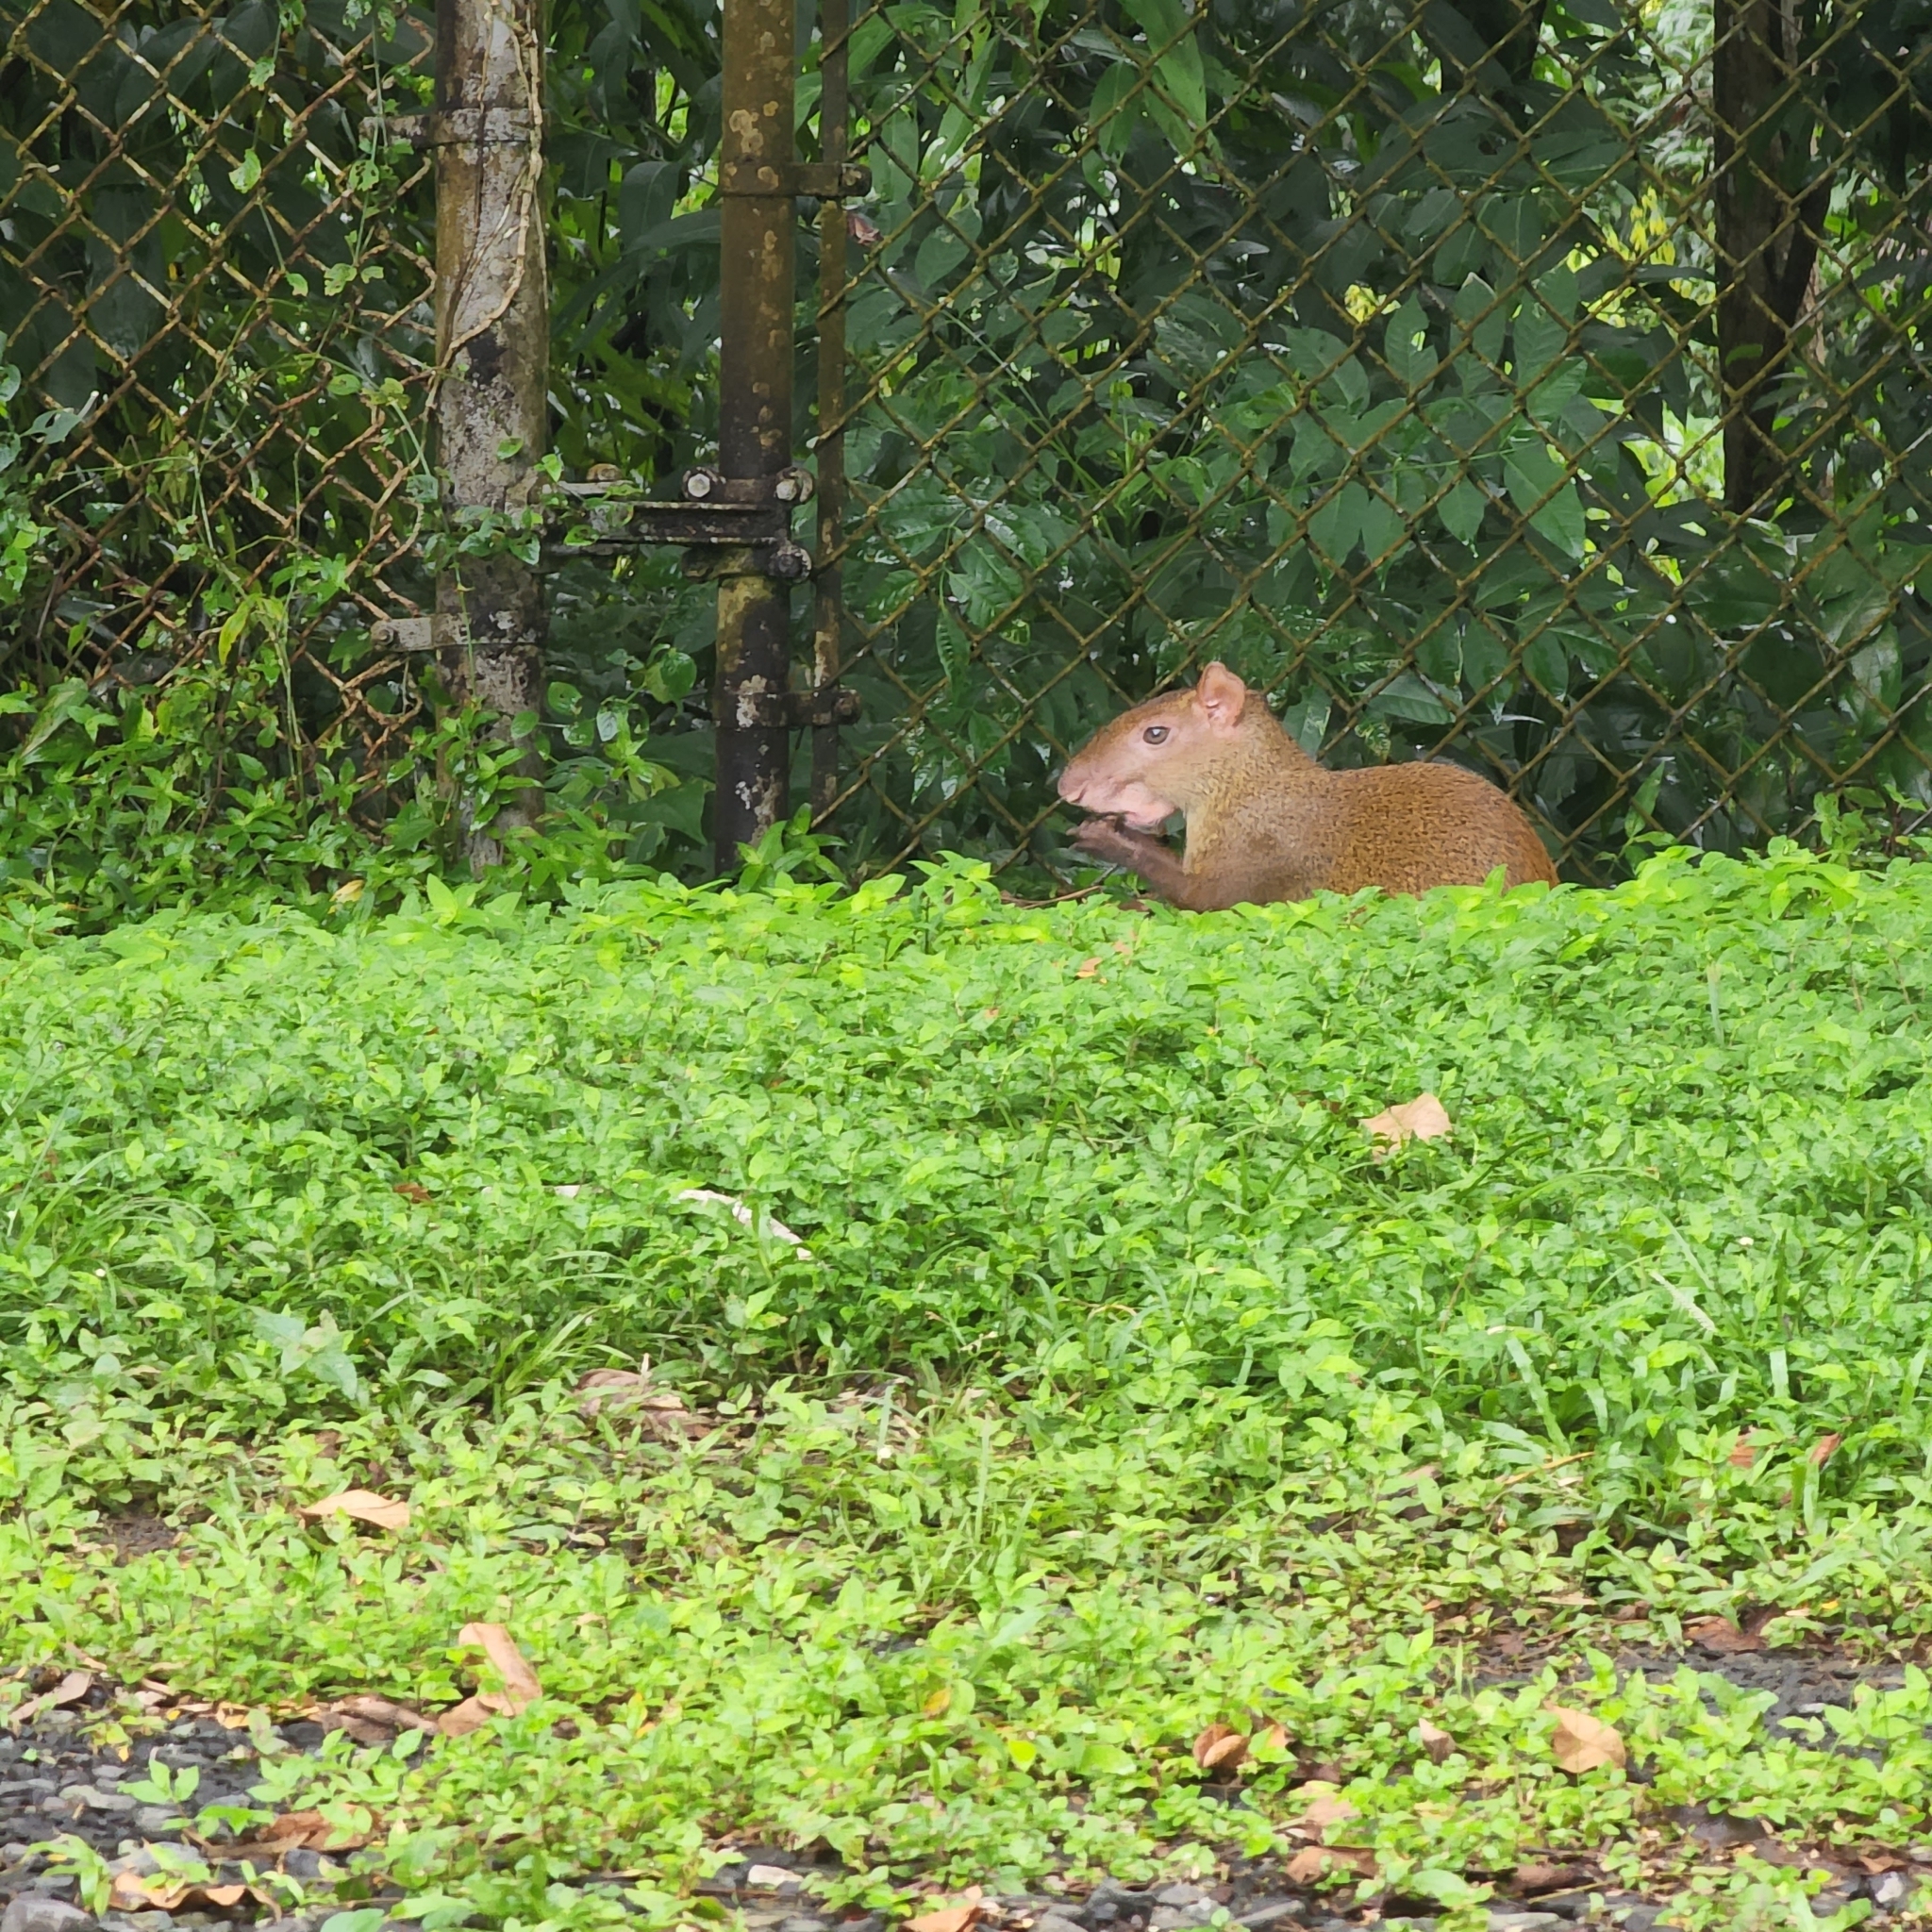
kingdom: Animalia
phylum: Chordata
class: Mammalia
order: Rodentia
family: Dasyproctidae
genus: Dasyprocta
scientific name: Dasyprocta punctata
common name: Central american agouti
